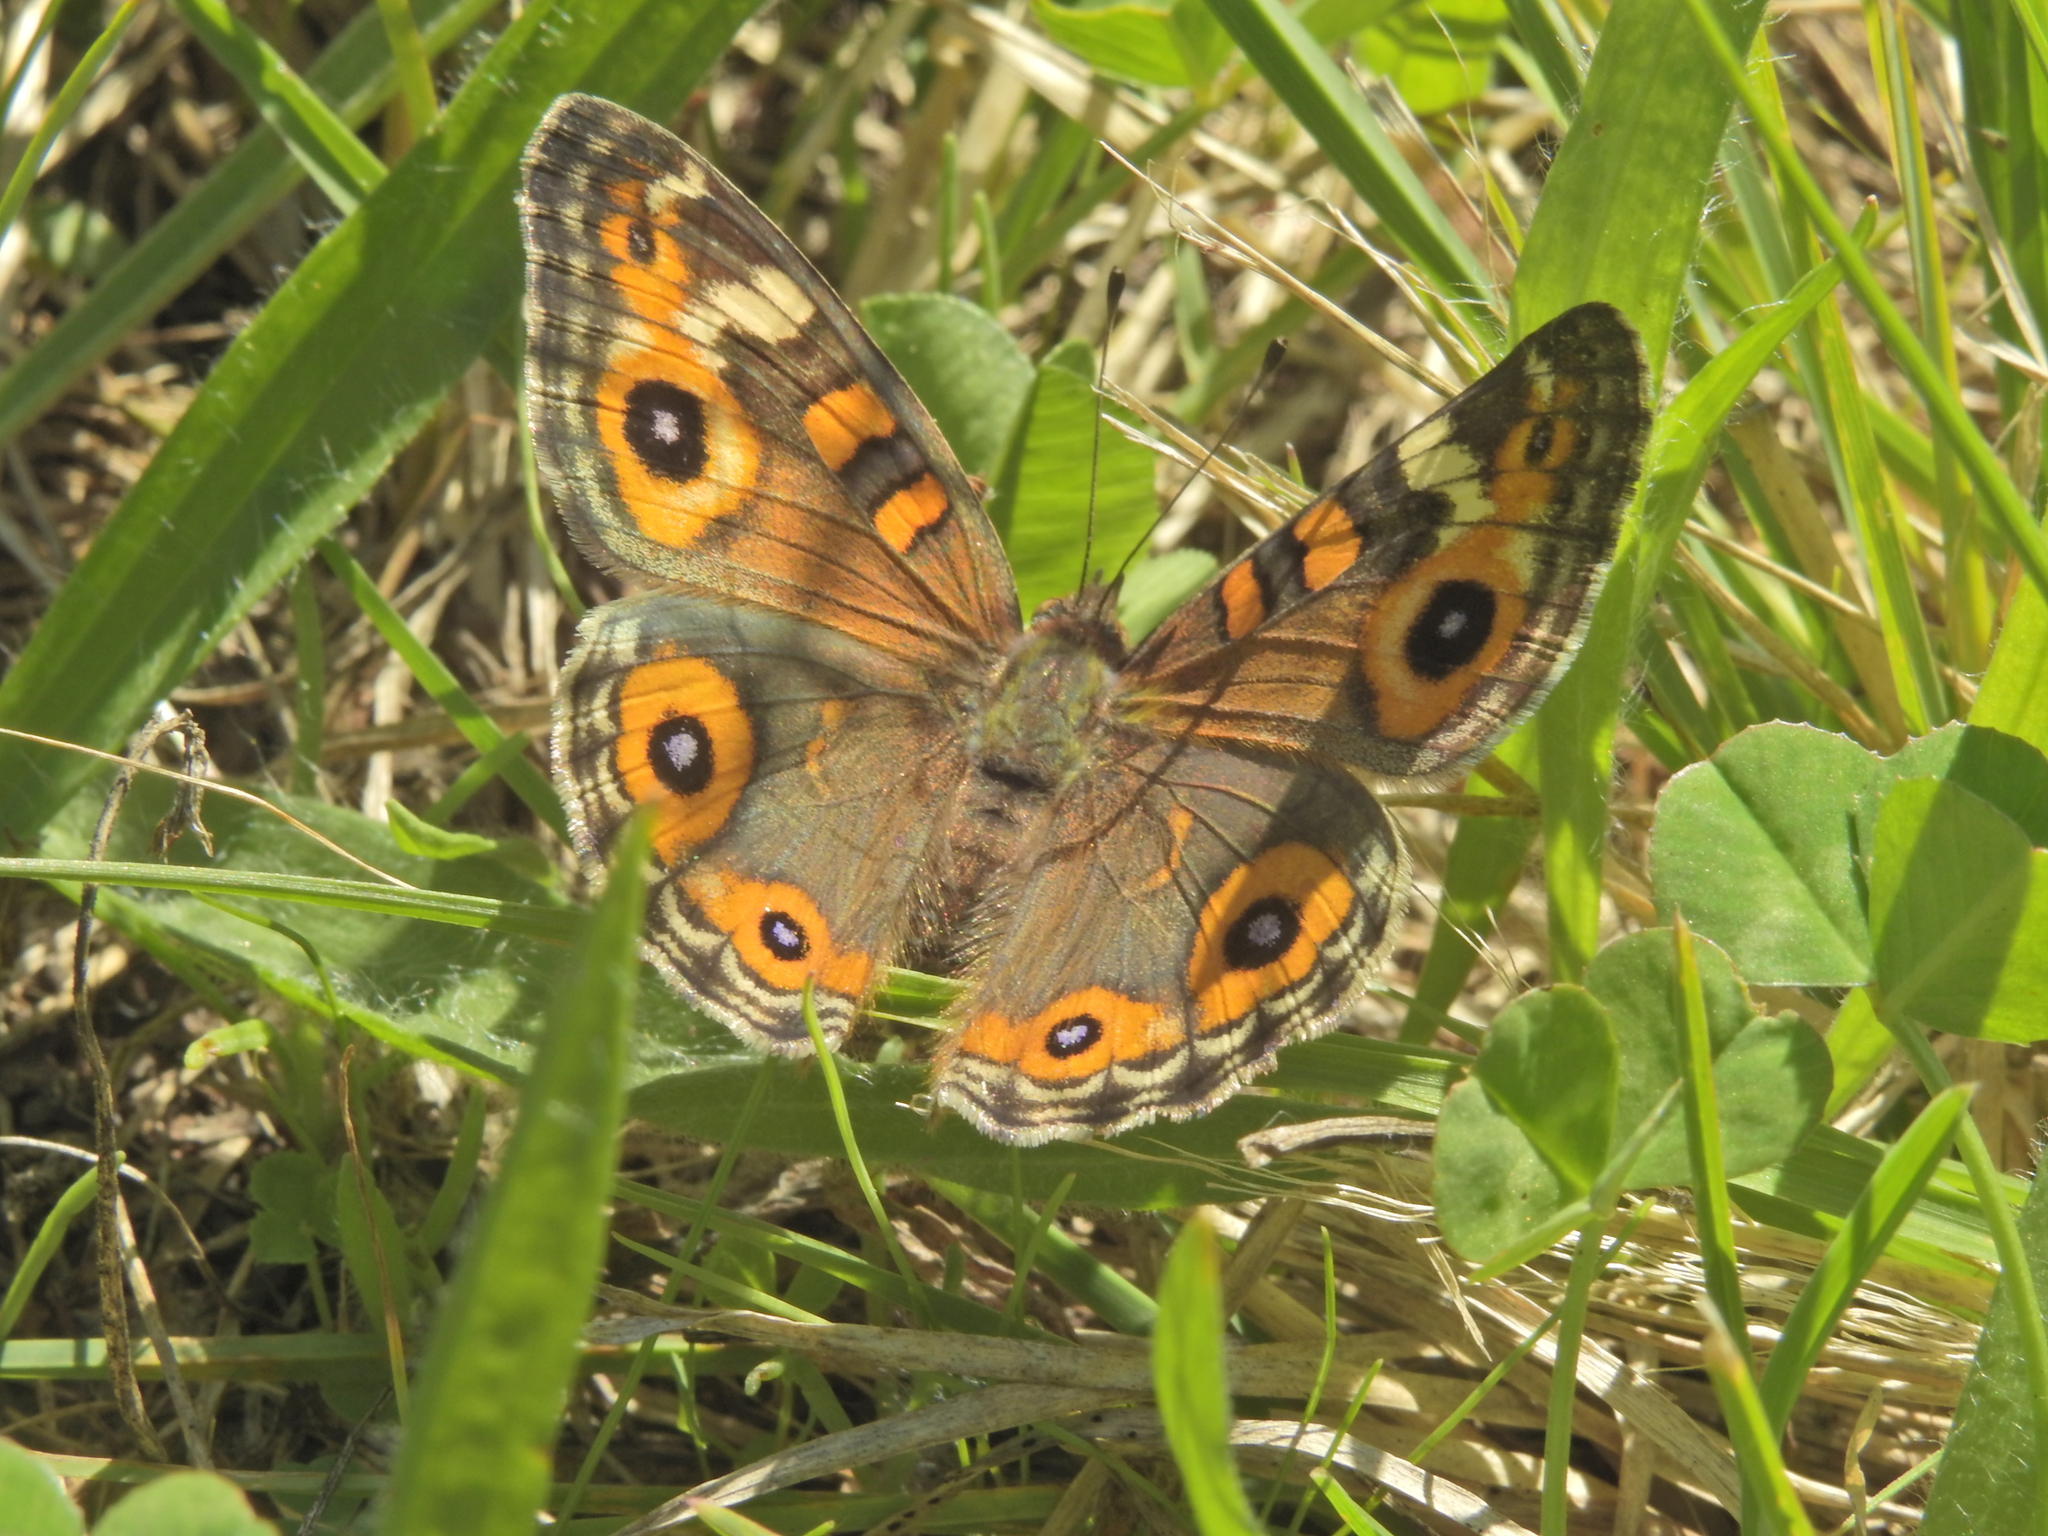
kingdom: Animalia
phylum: Arthropoda
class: Insecta
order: Lepidoptera
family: Nymphalidae
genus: Junonia
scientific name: Junonia villida
